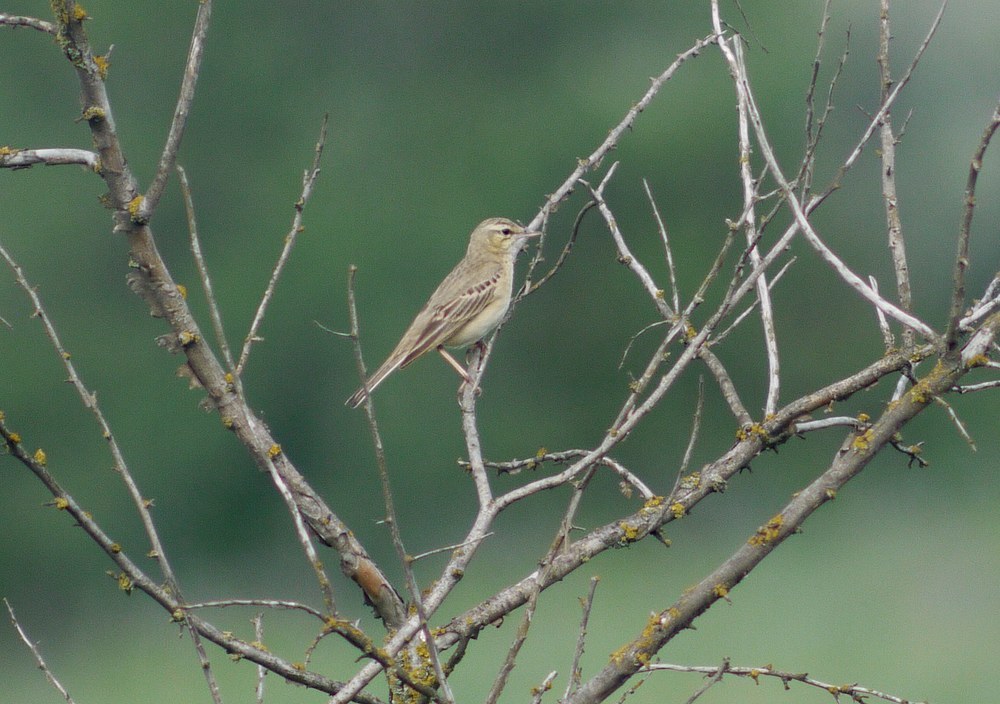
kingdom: Animalia
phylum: Chordata
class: Aves
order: Passeriformes
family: Motacillidae
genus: Anthus
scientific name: Anthus campestris
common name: Tawny pipit
